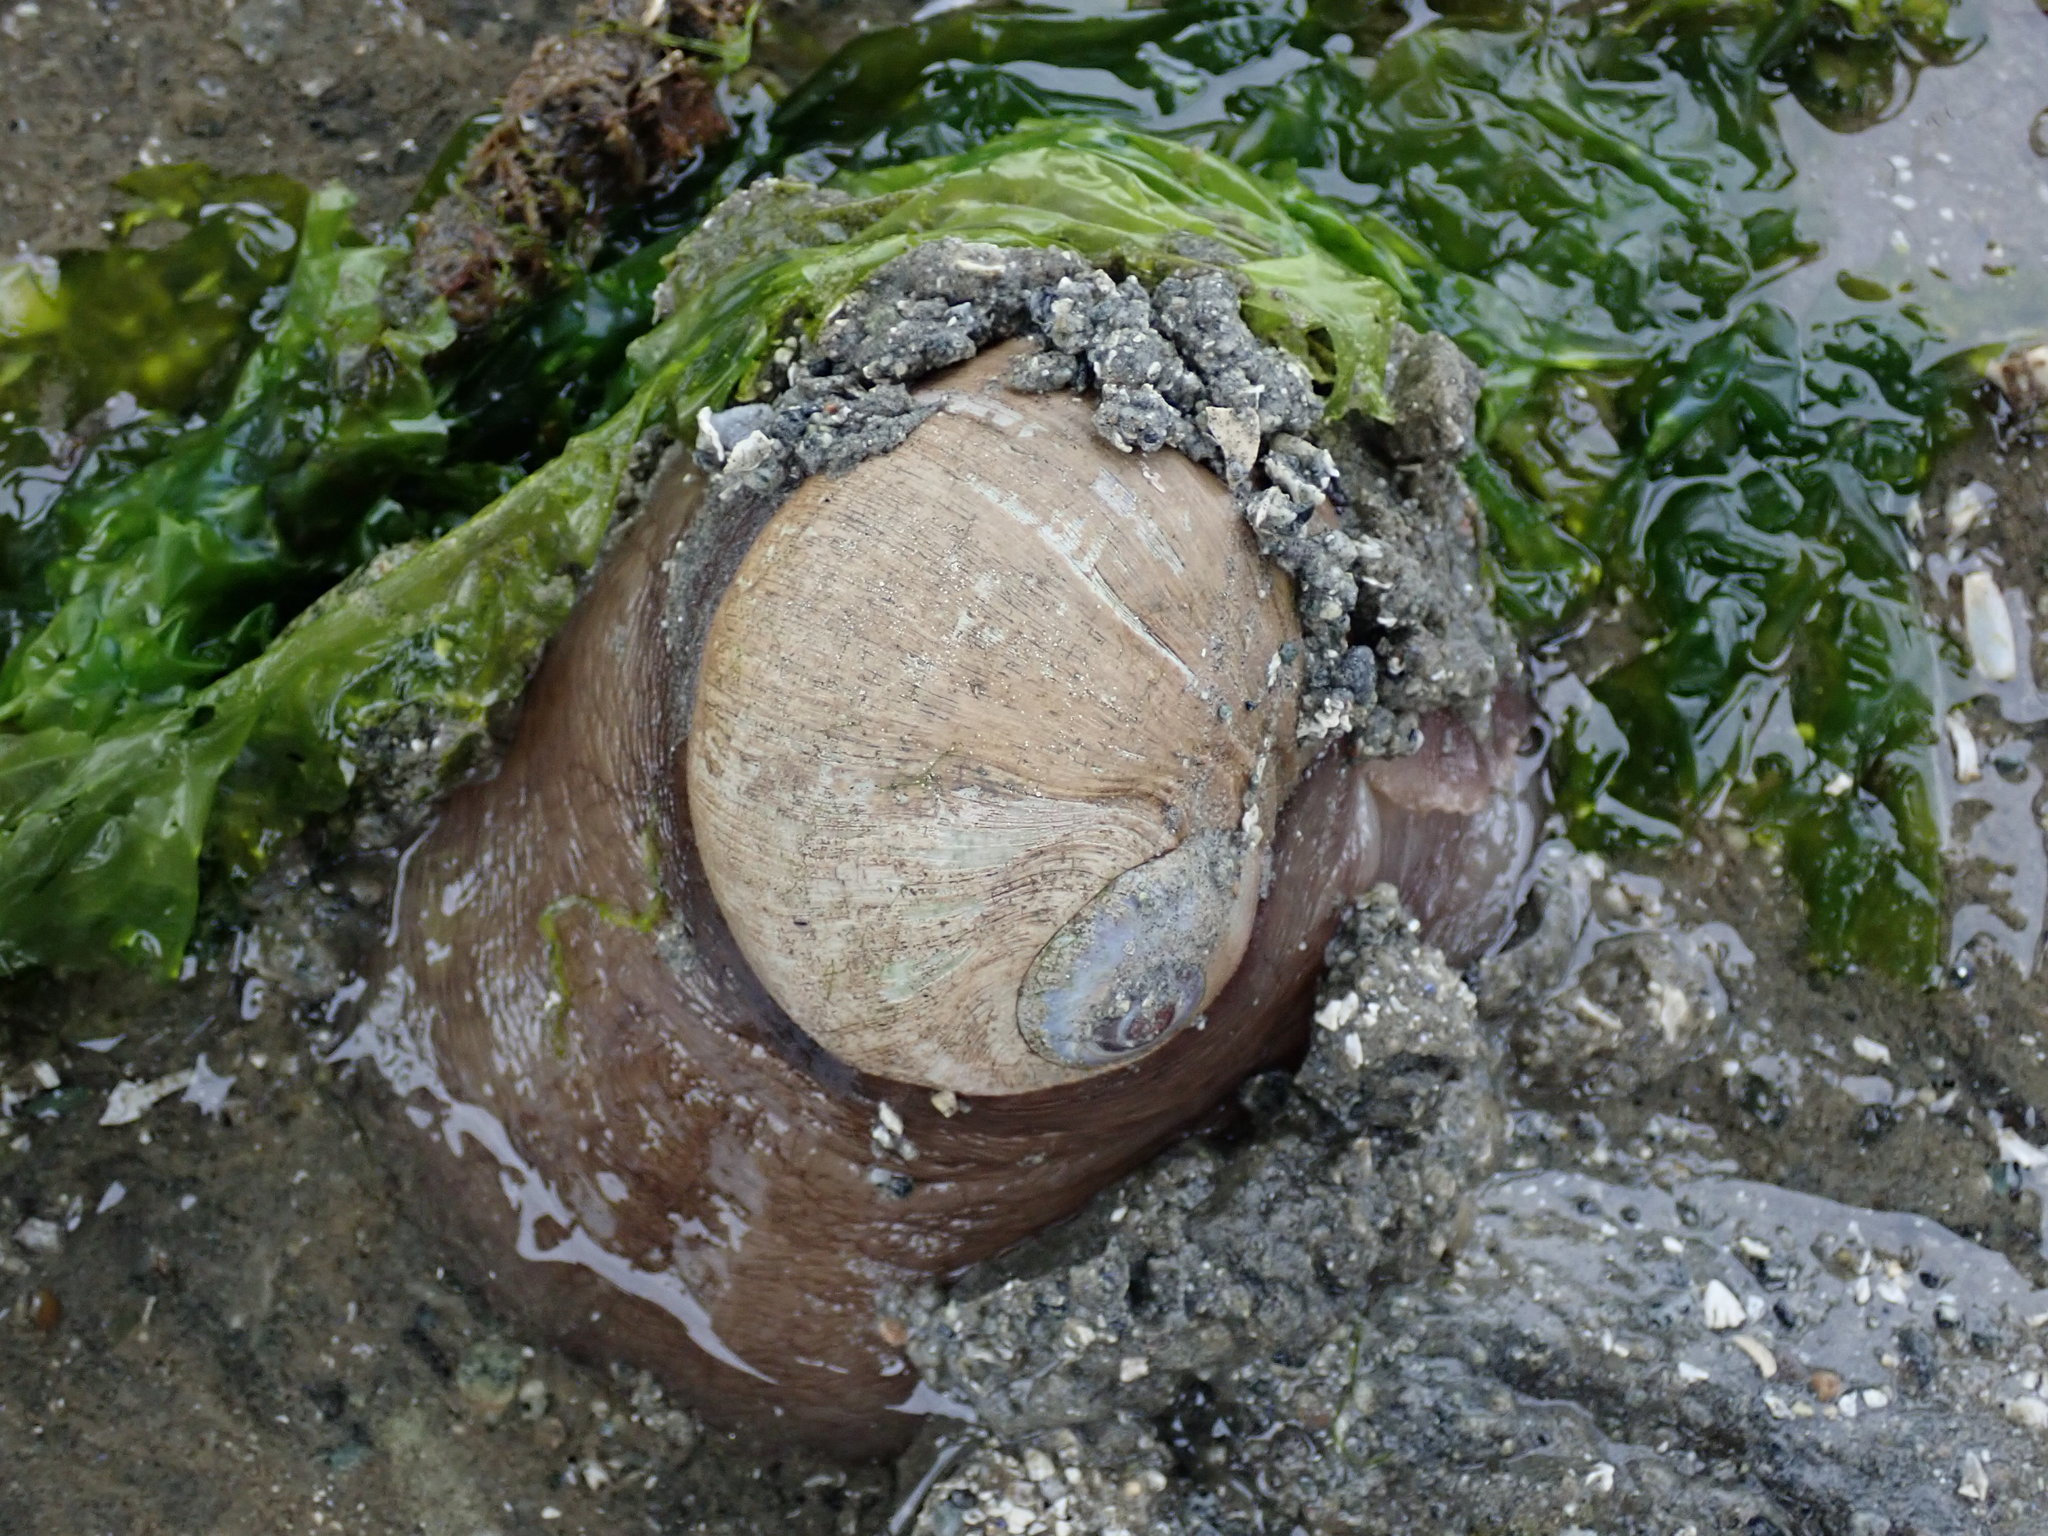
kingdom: Animalia
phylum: Mollusca
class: Gastropoda
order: Littorinimorpha
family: Naticidae
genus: Neverita
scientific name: Neverita lewisii
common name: Lewis' moonsnail
